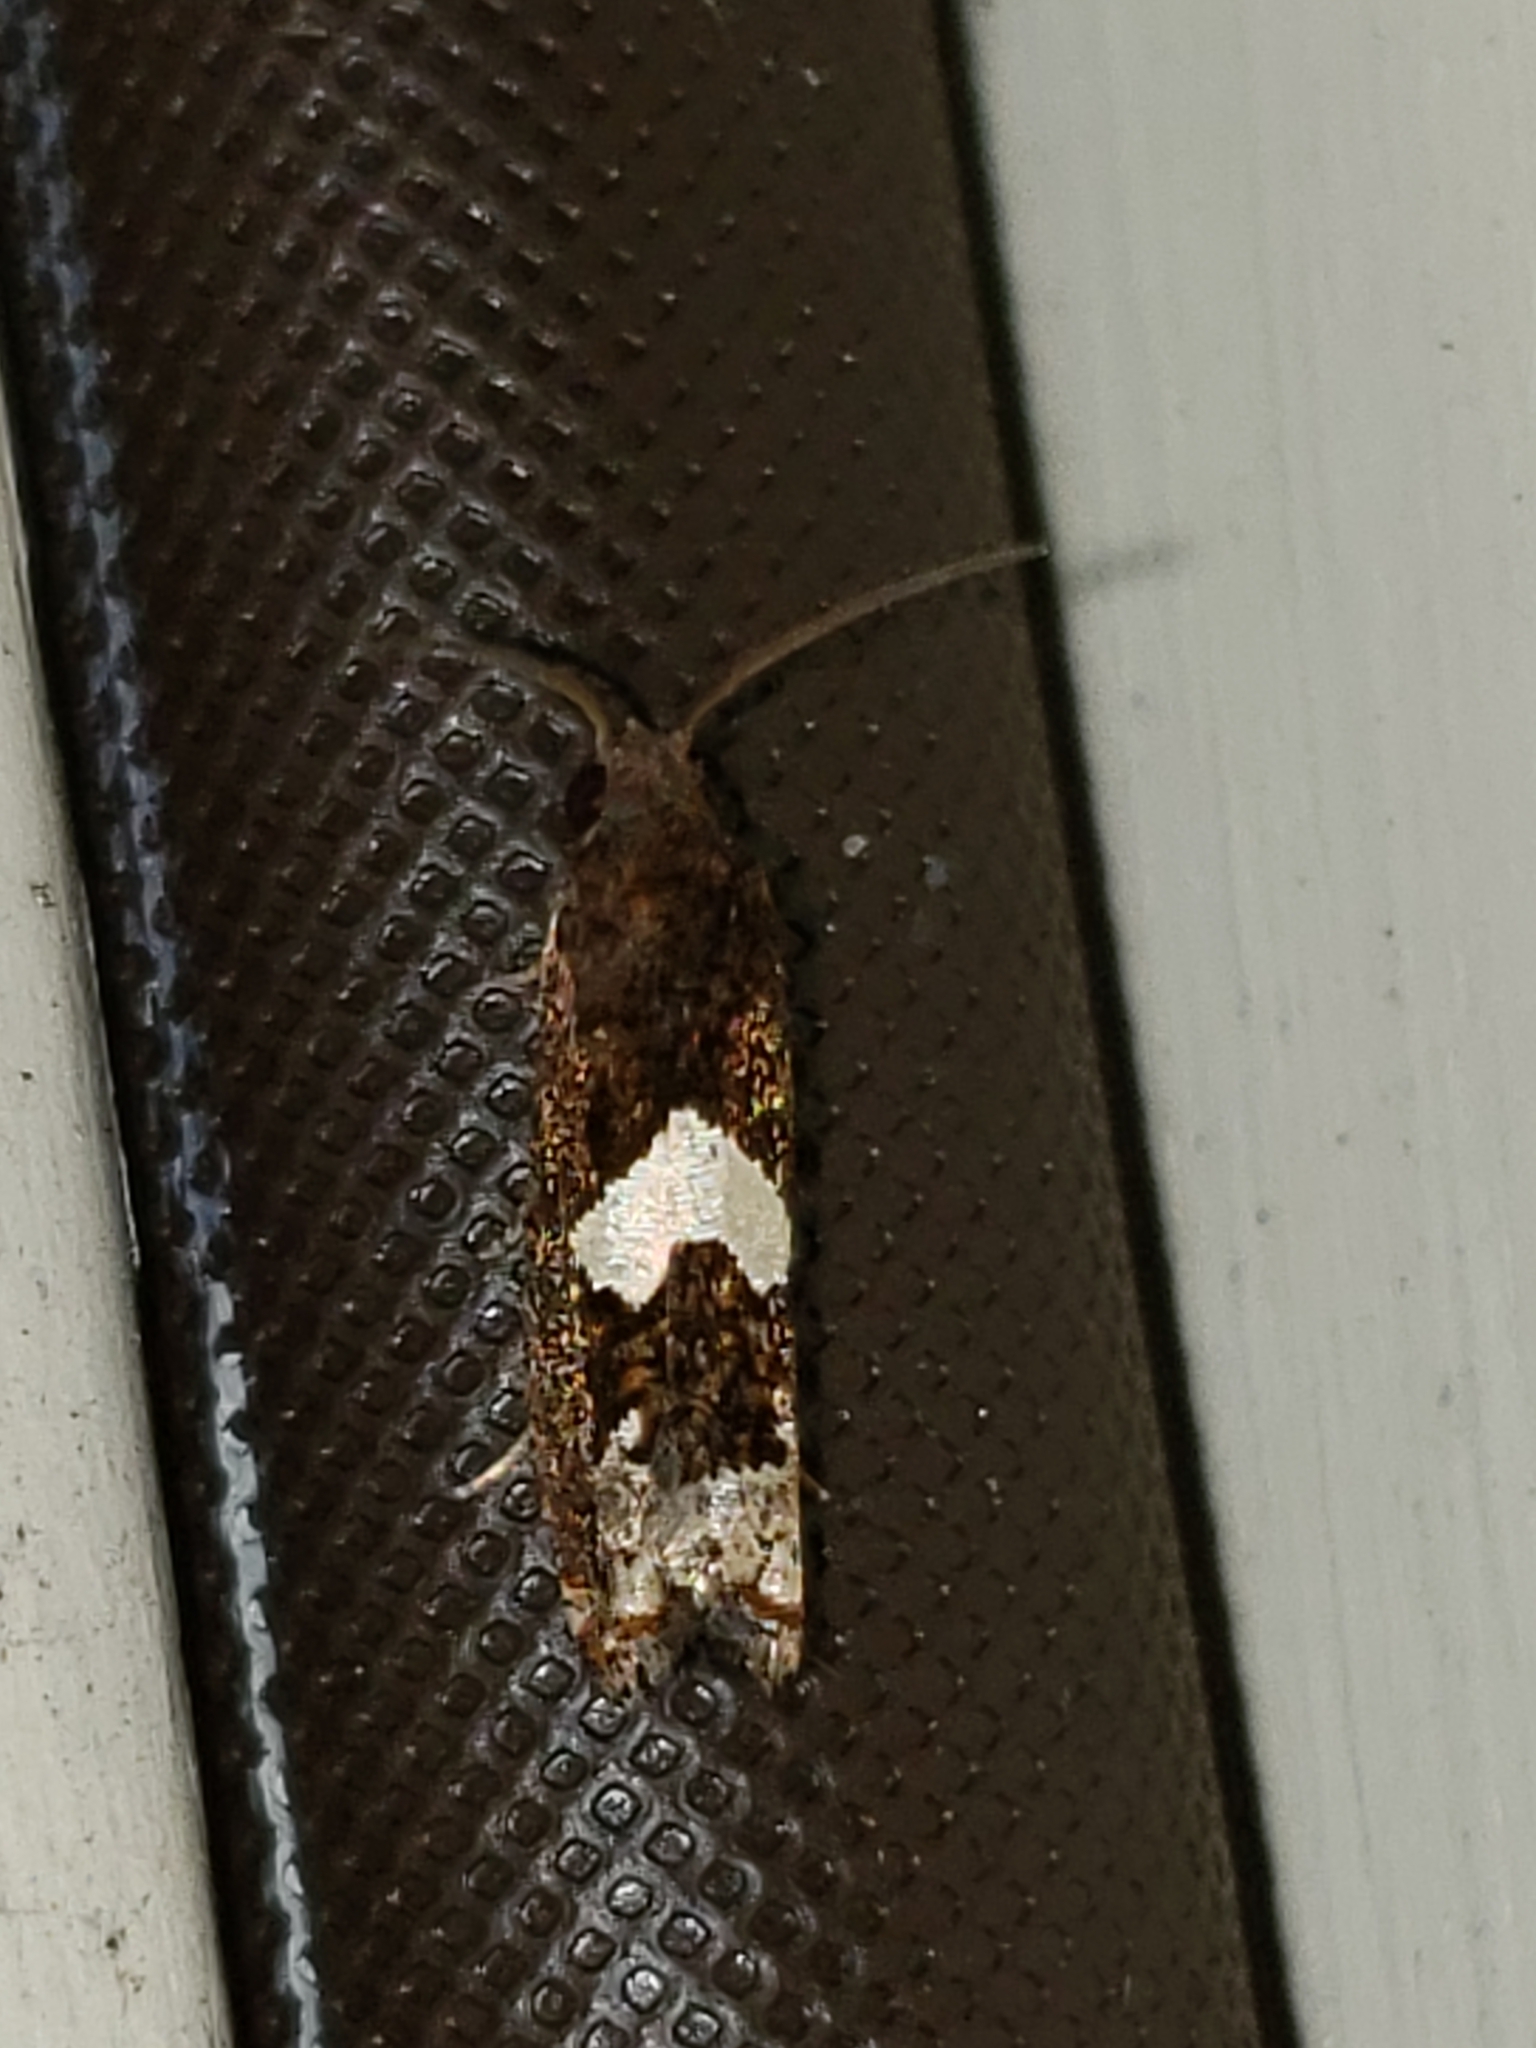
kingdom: Animalia
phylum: Arthropoda
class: Insecta
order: Lepidoptera
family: Tortricidae
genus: Epiblema
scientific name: Epiblema otiosana
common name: Bidens borer moth
